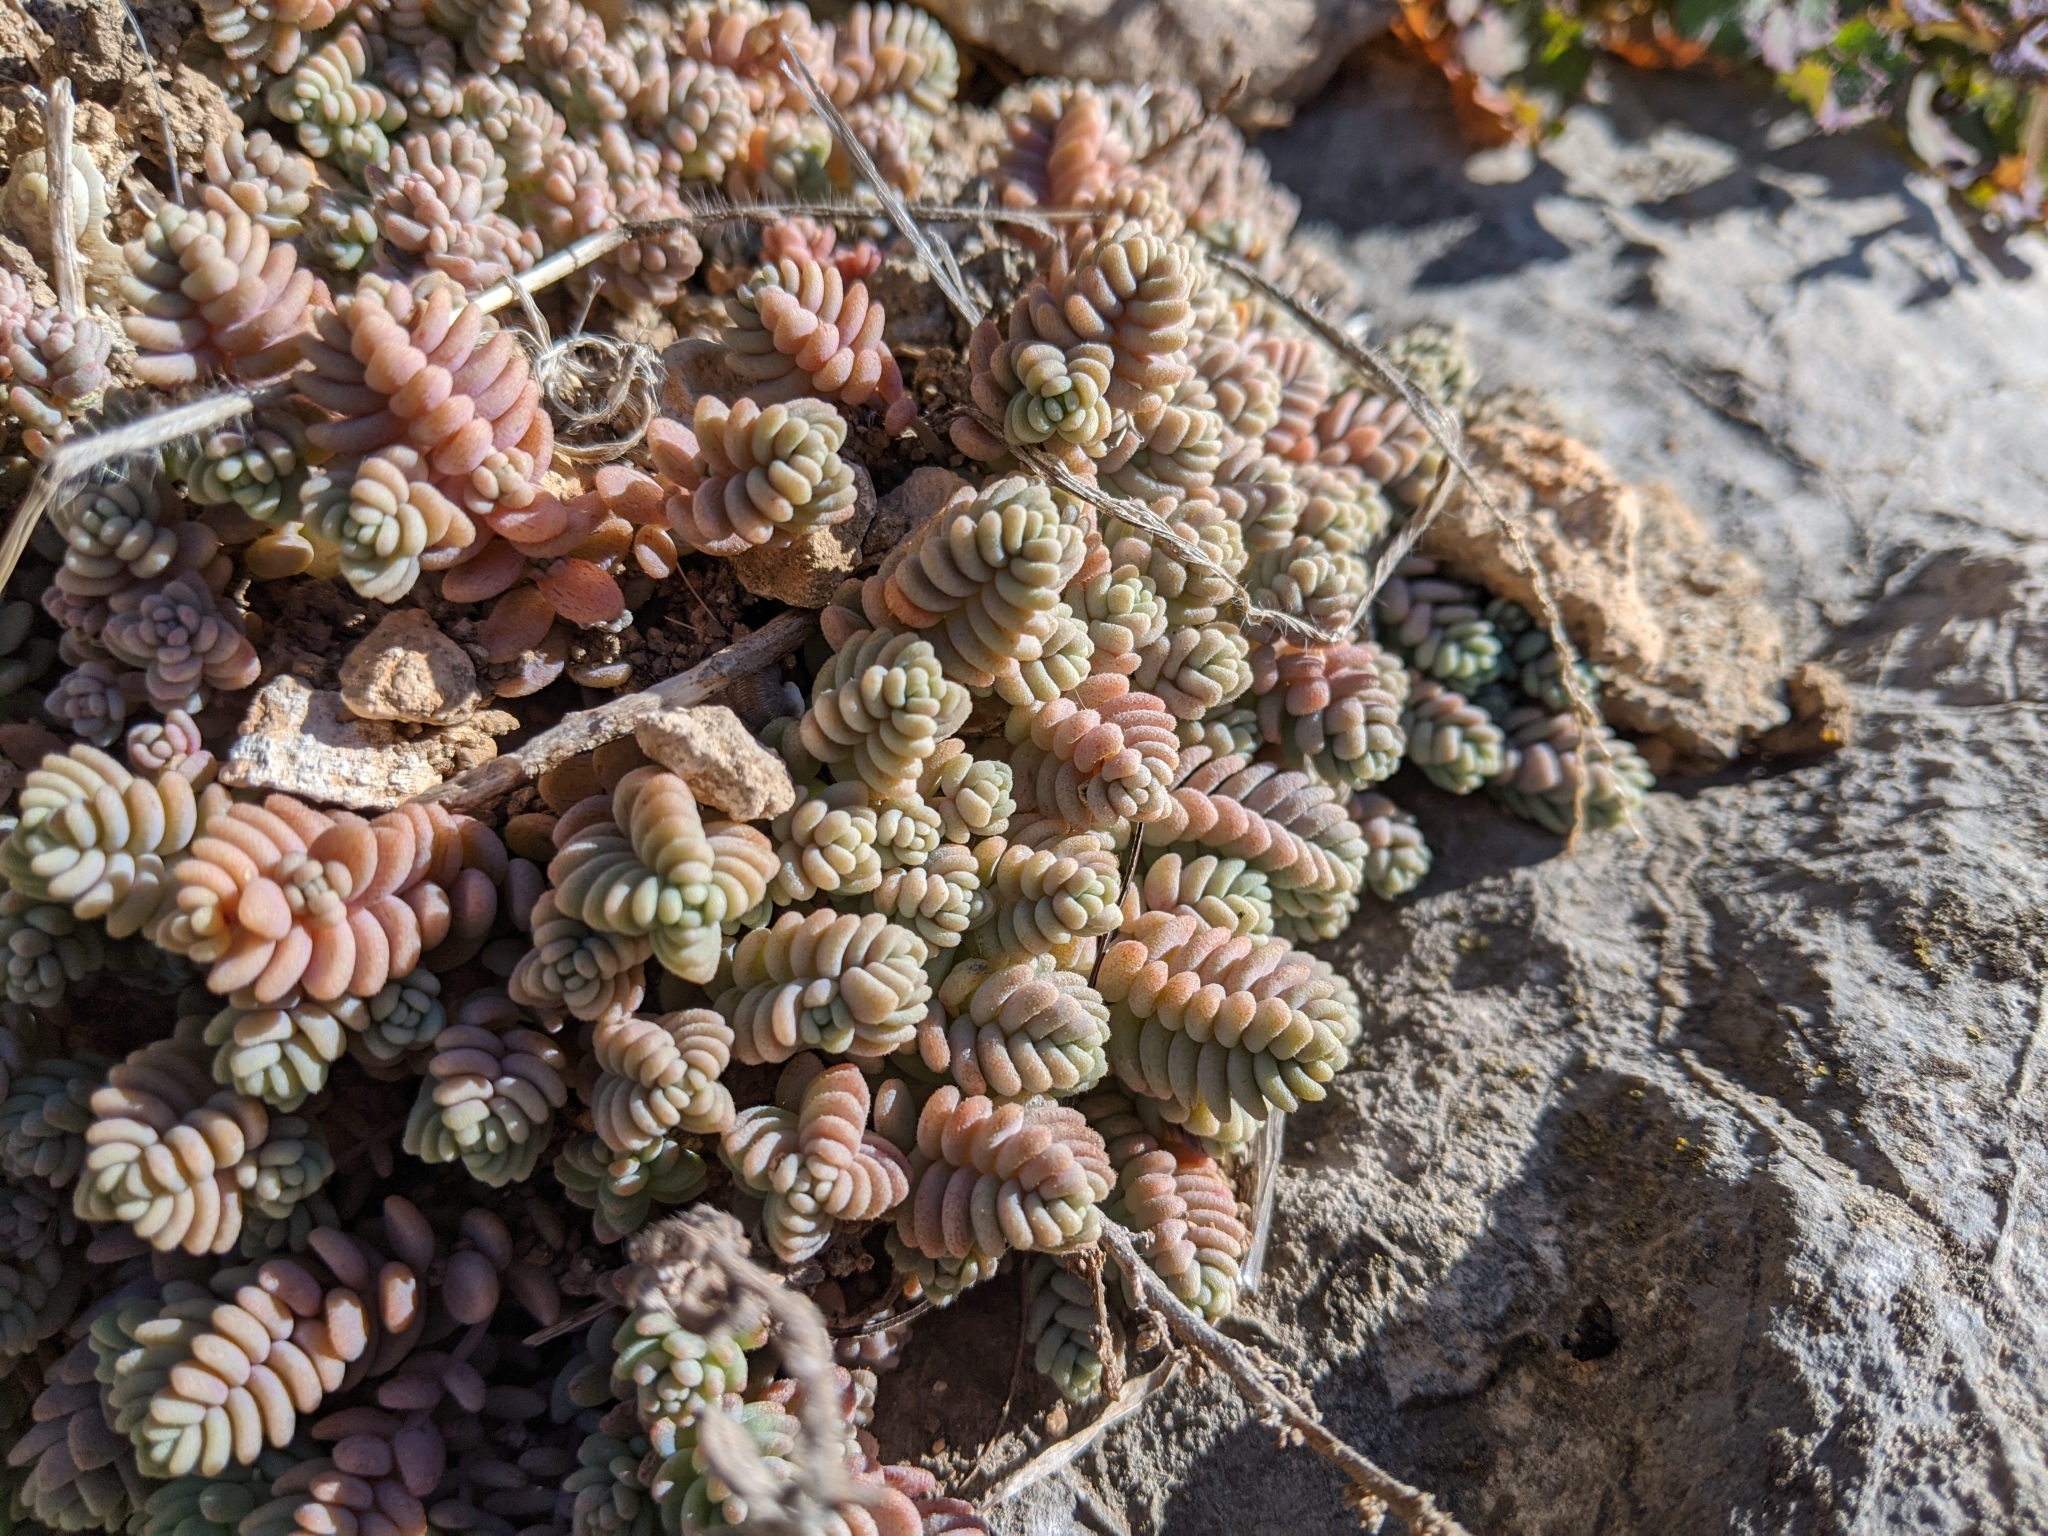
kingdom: Plantae
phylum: Tracheophyta
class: Magnoliopsida
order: Saxifragales
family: Crassulaceae
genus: Sedum
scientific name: Sedum dasyphyllum
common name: Thick-leaf stonecrop
